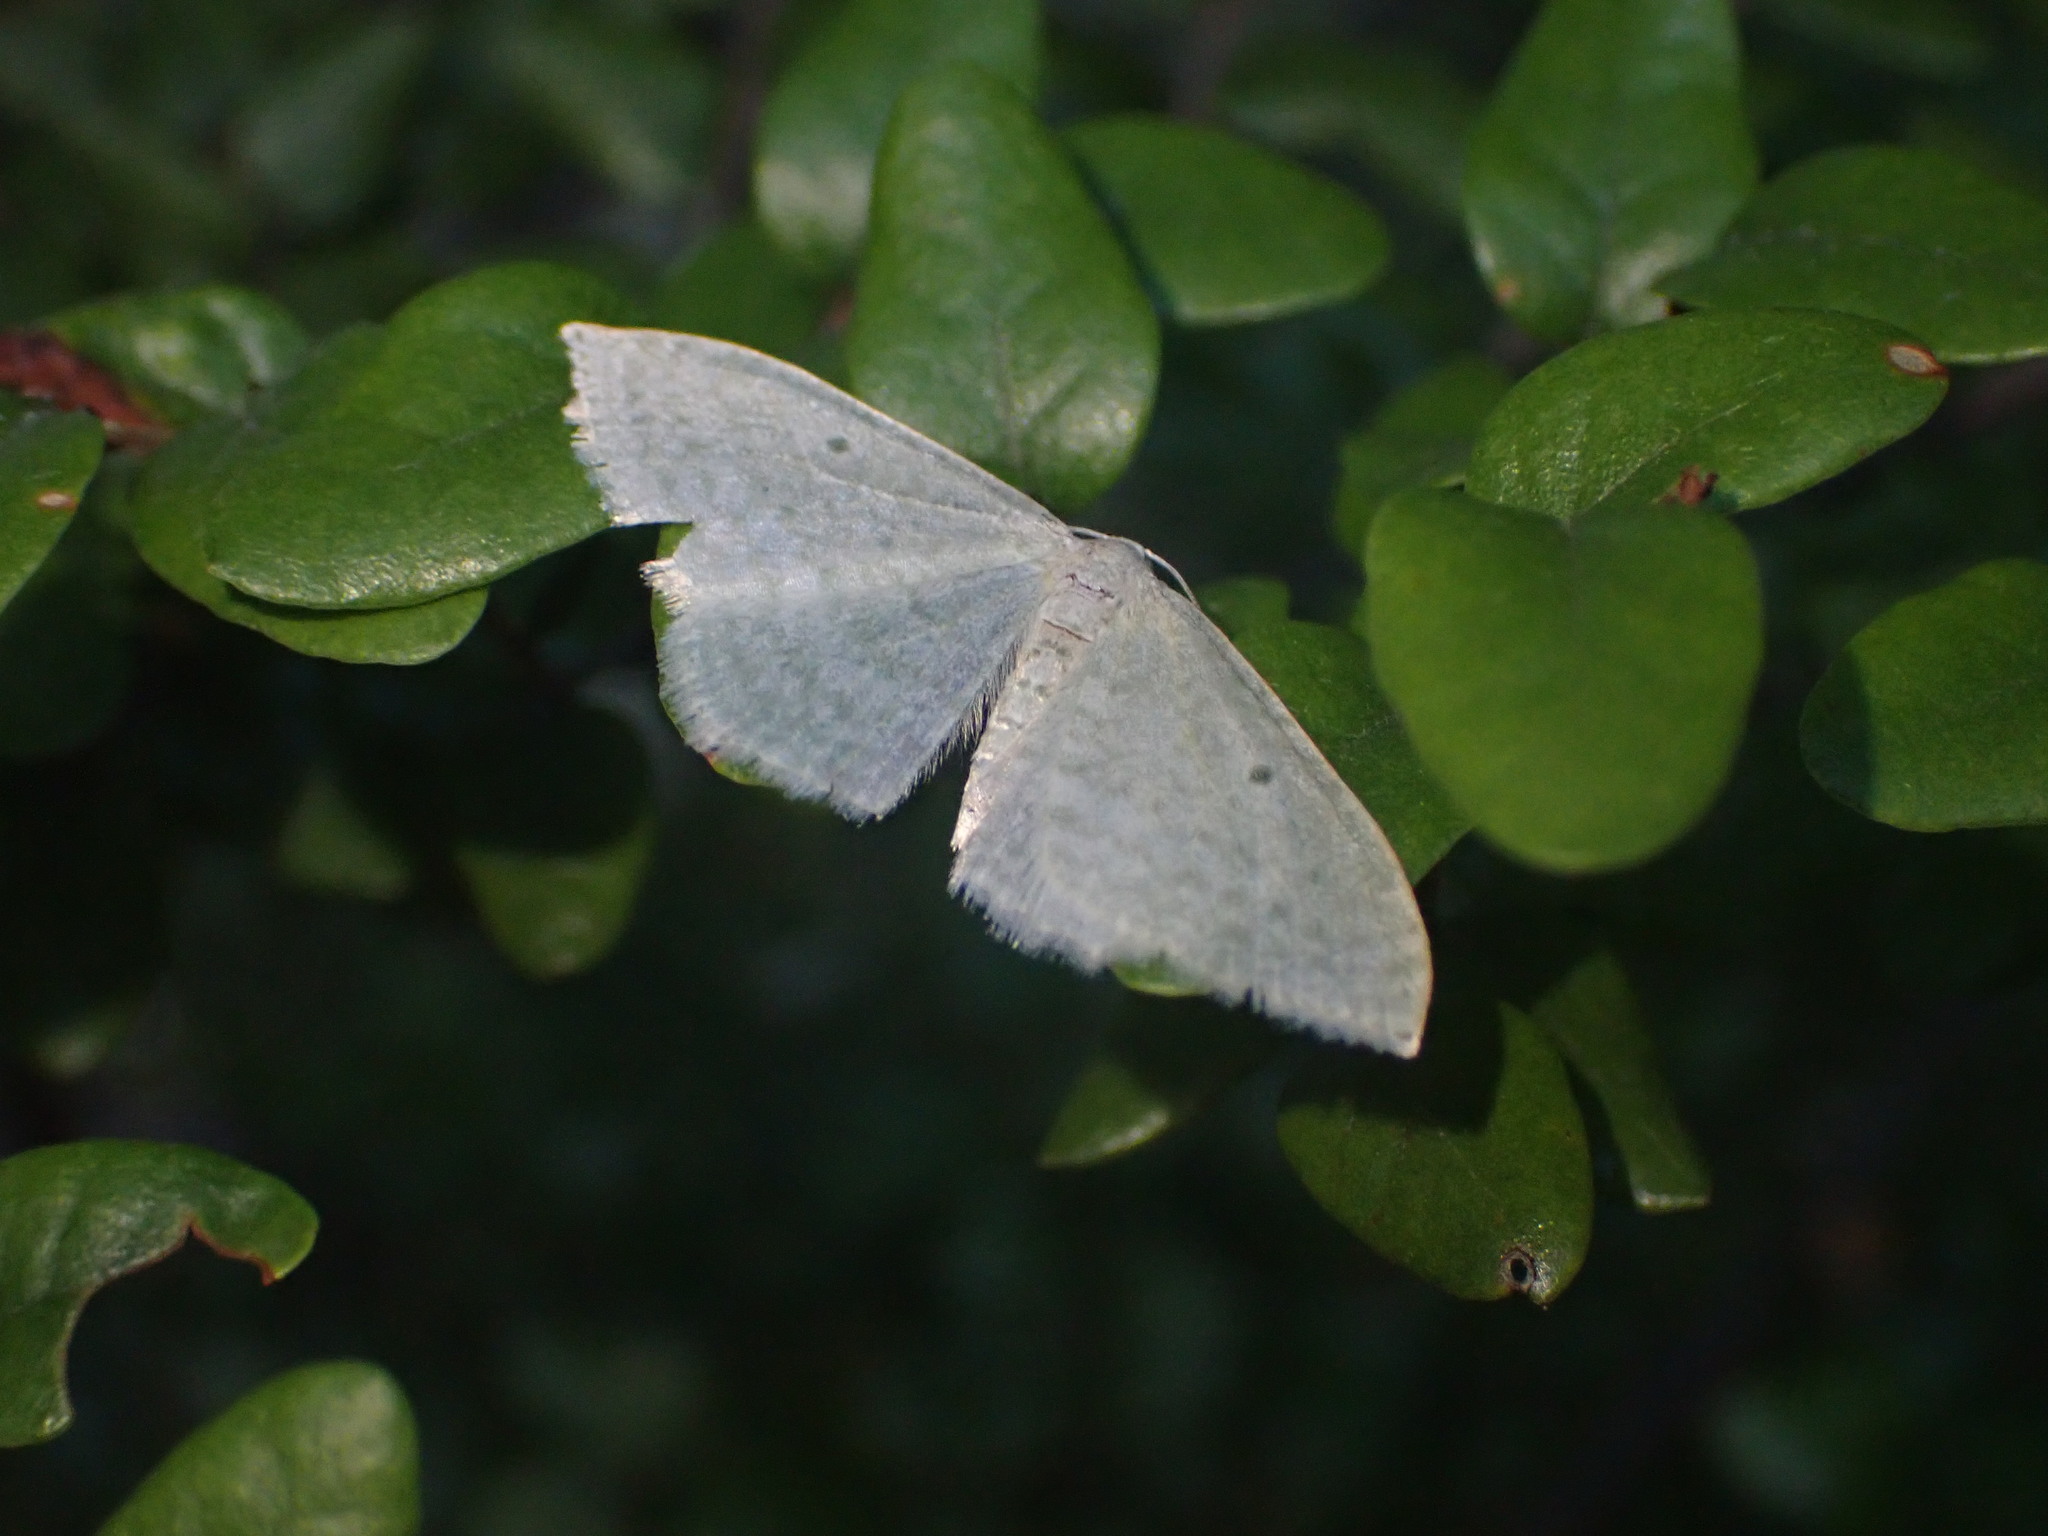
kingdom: Animalia
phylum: Arthropoda
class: Insecta
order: Lepidoptera
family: Geometridae
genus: Poecilasthena
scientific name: Poecilasthena pulchraria
